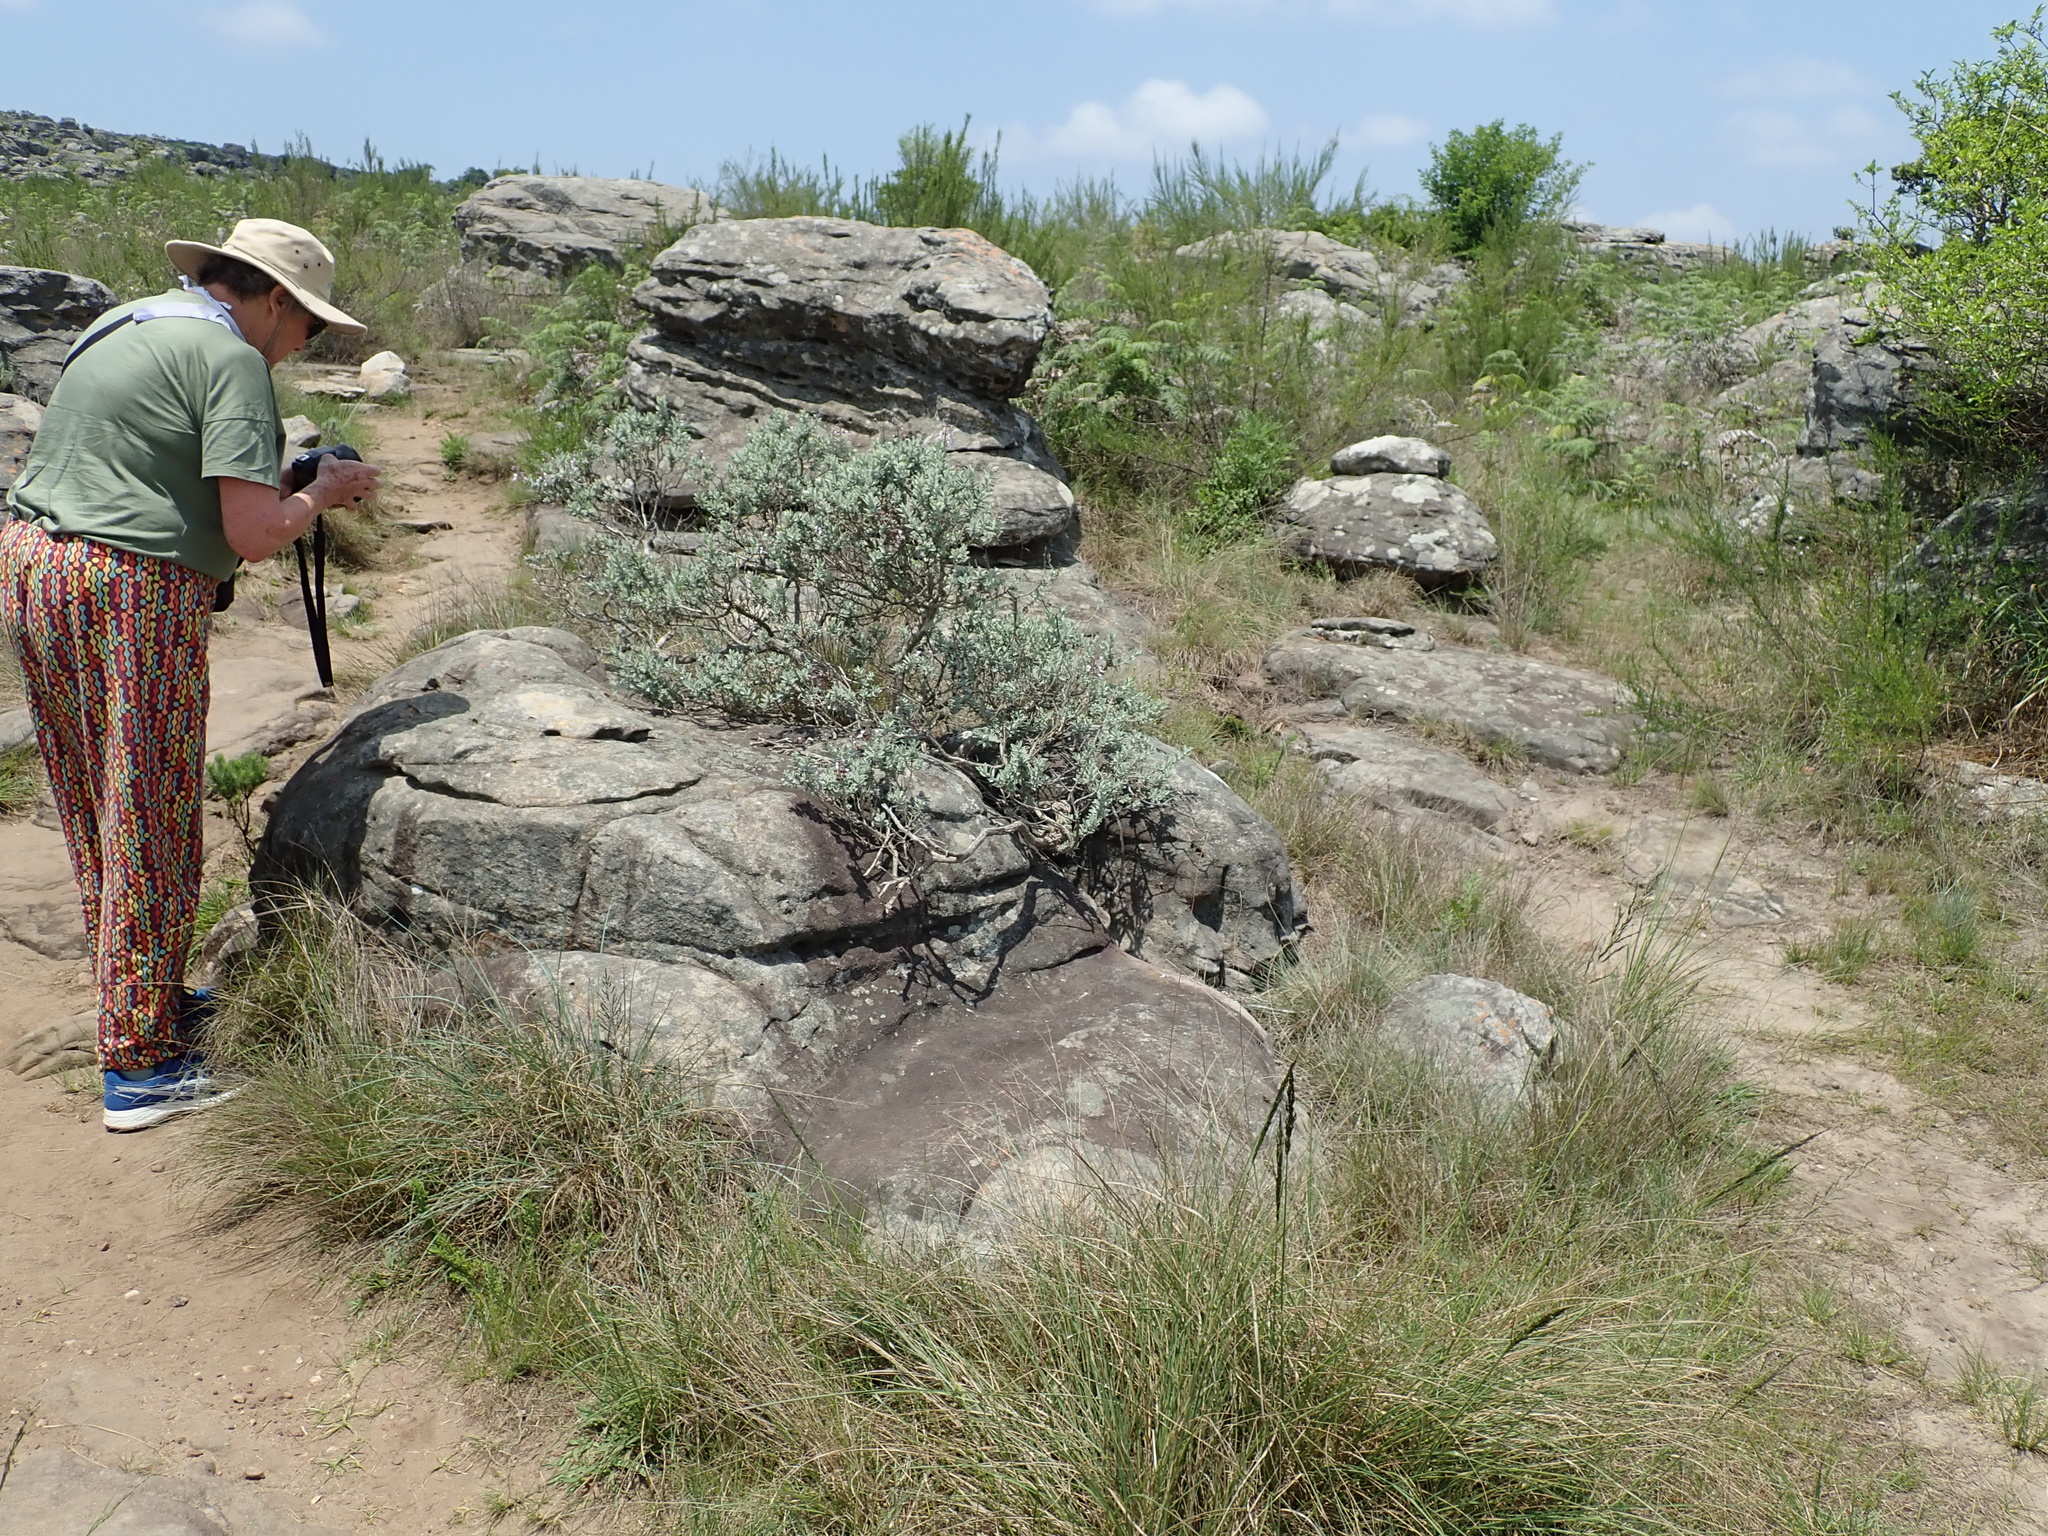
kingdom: Plantae
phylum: Tracheophyta
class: Magnoliopsida
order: Lamiales
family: Lamiaceae
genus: Syncolostemon
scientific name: Syncolostemon incanus
